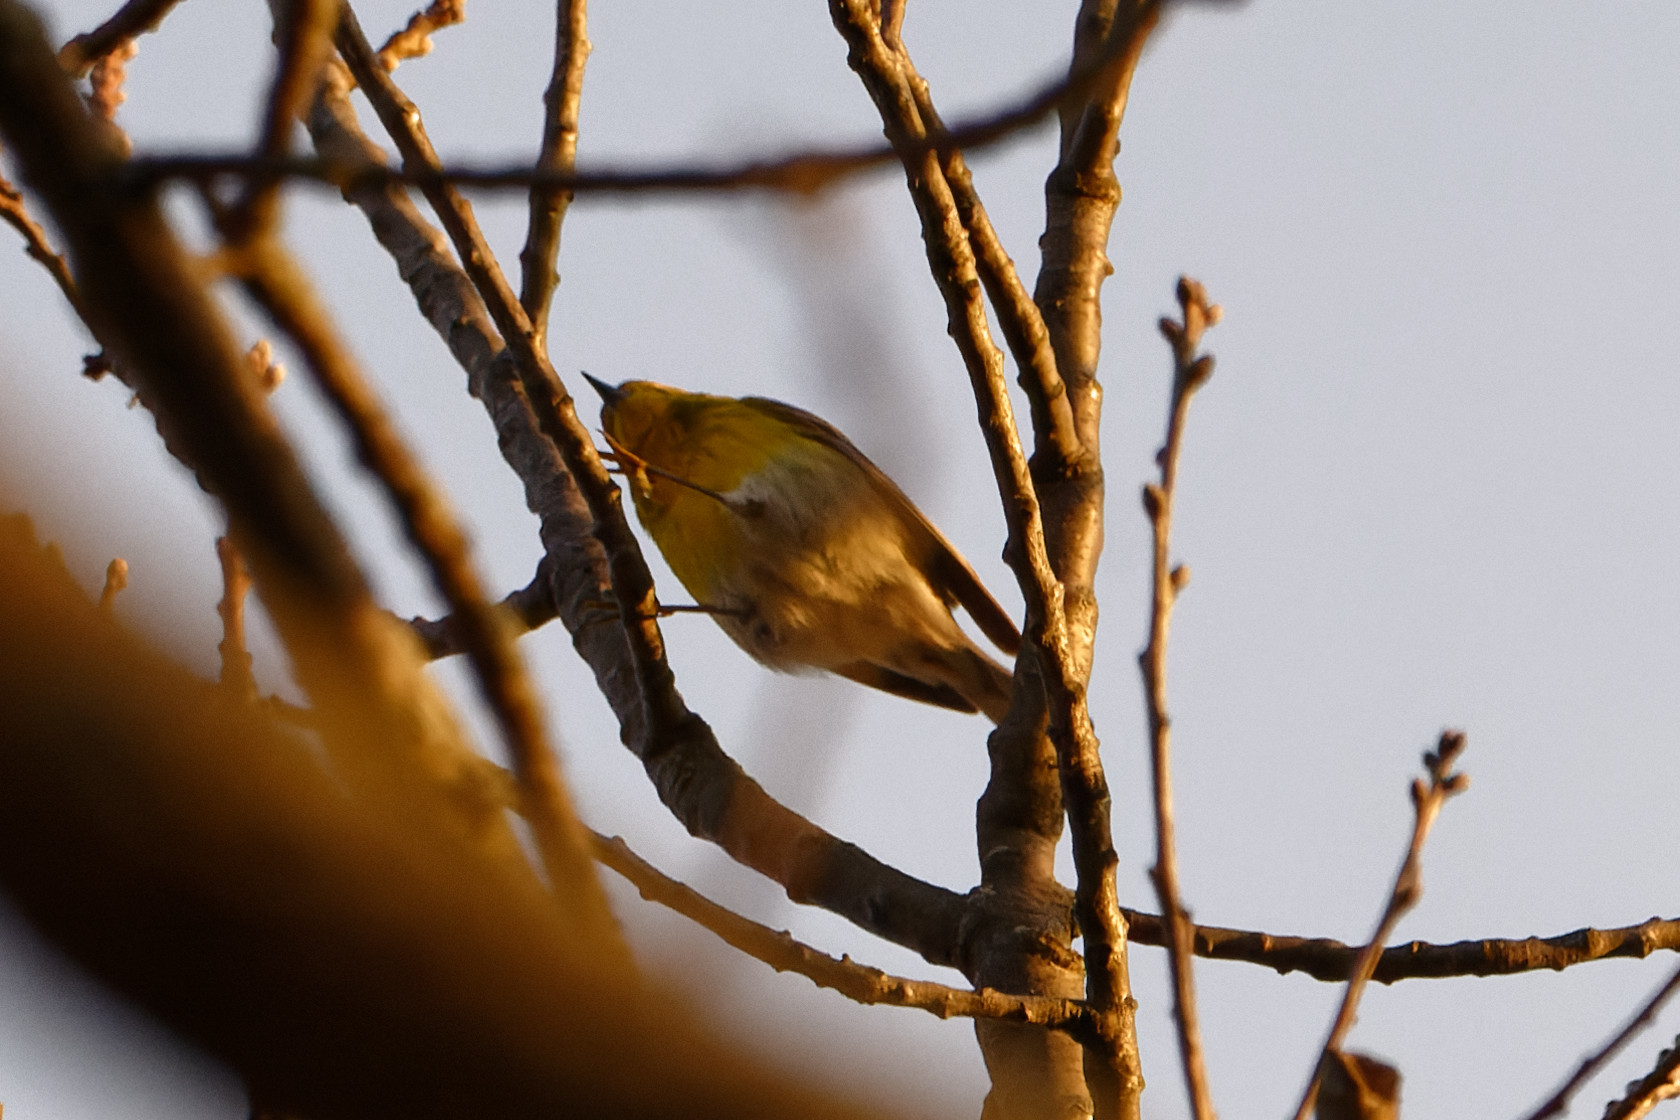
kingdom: Animalia
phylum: Chordata
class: Aves
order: Passeriformes
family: Parulidae
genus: Setophaga
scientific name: Setophaga pinus
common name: Pine warbler
